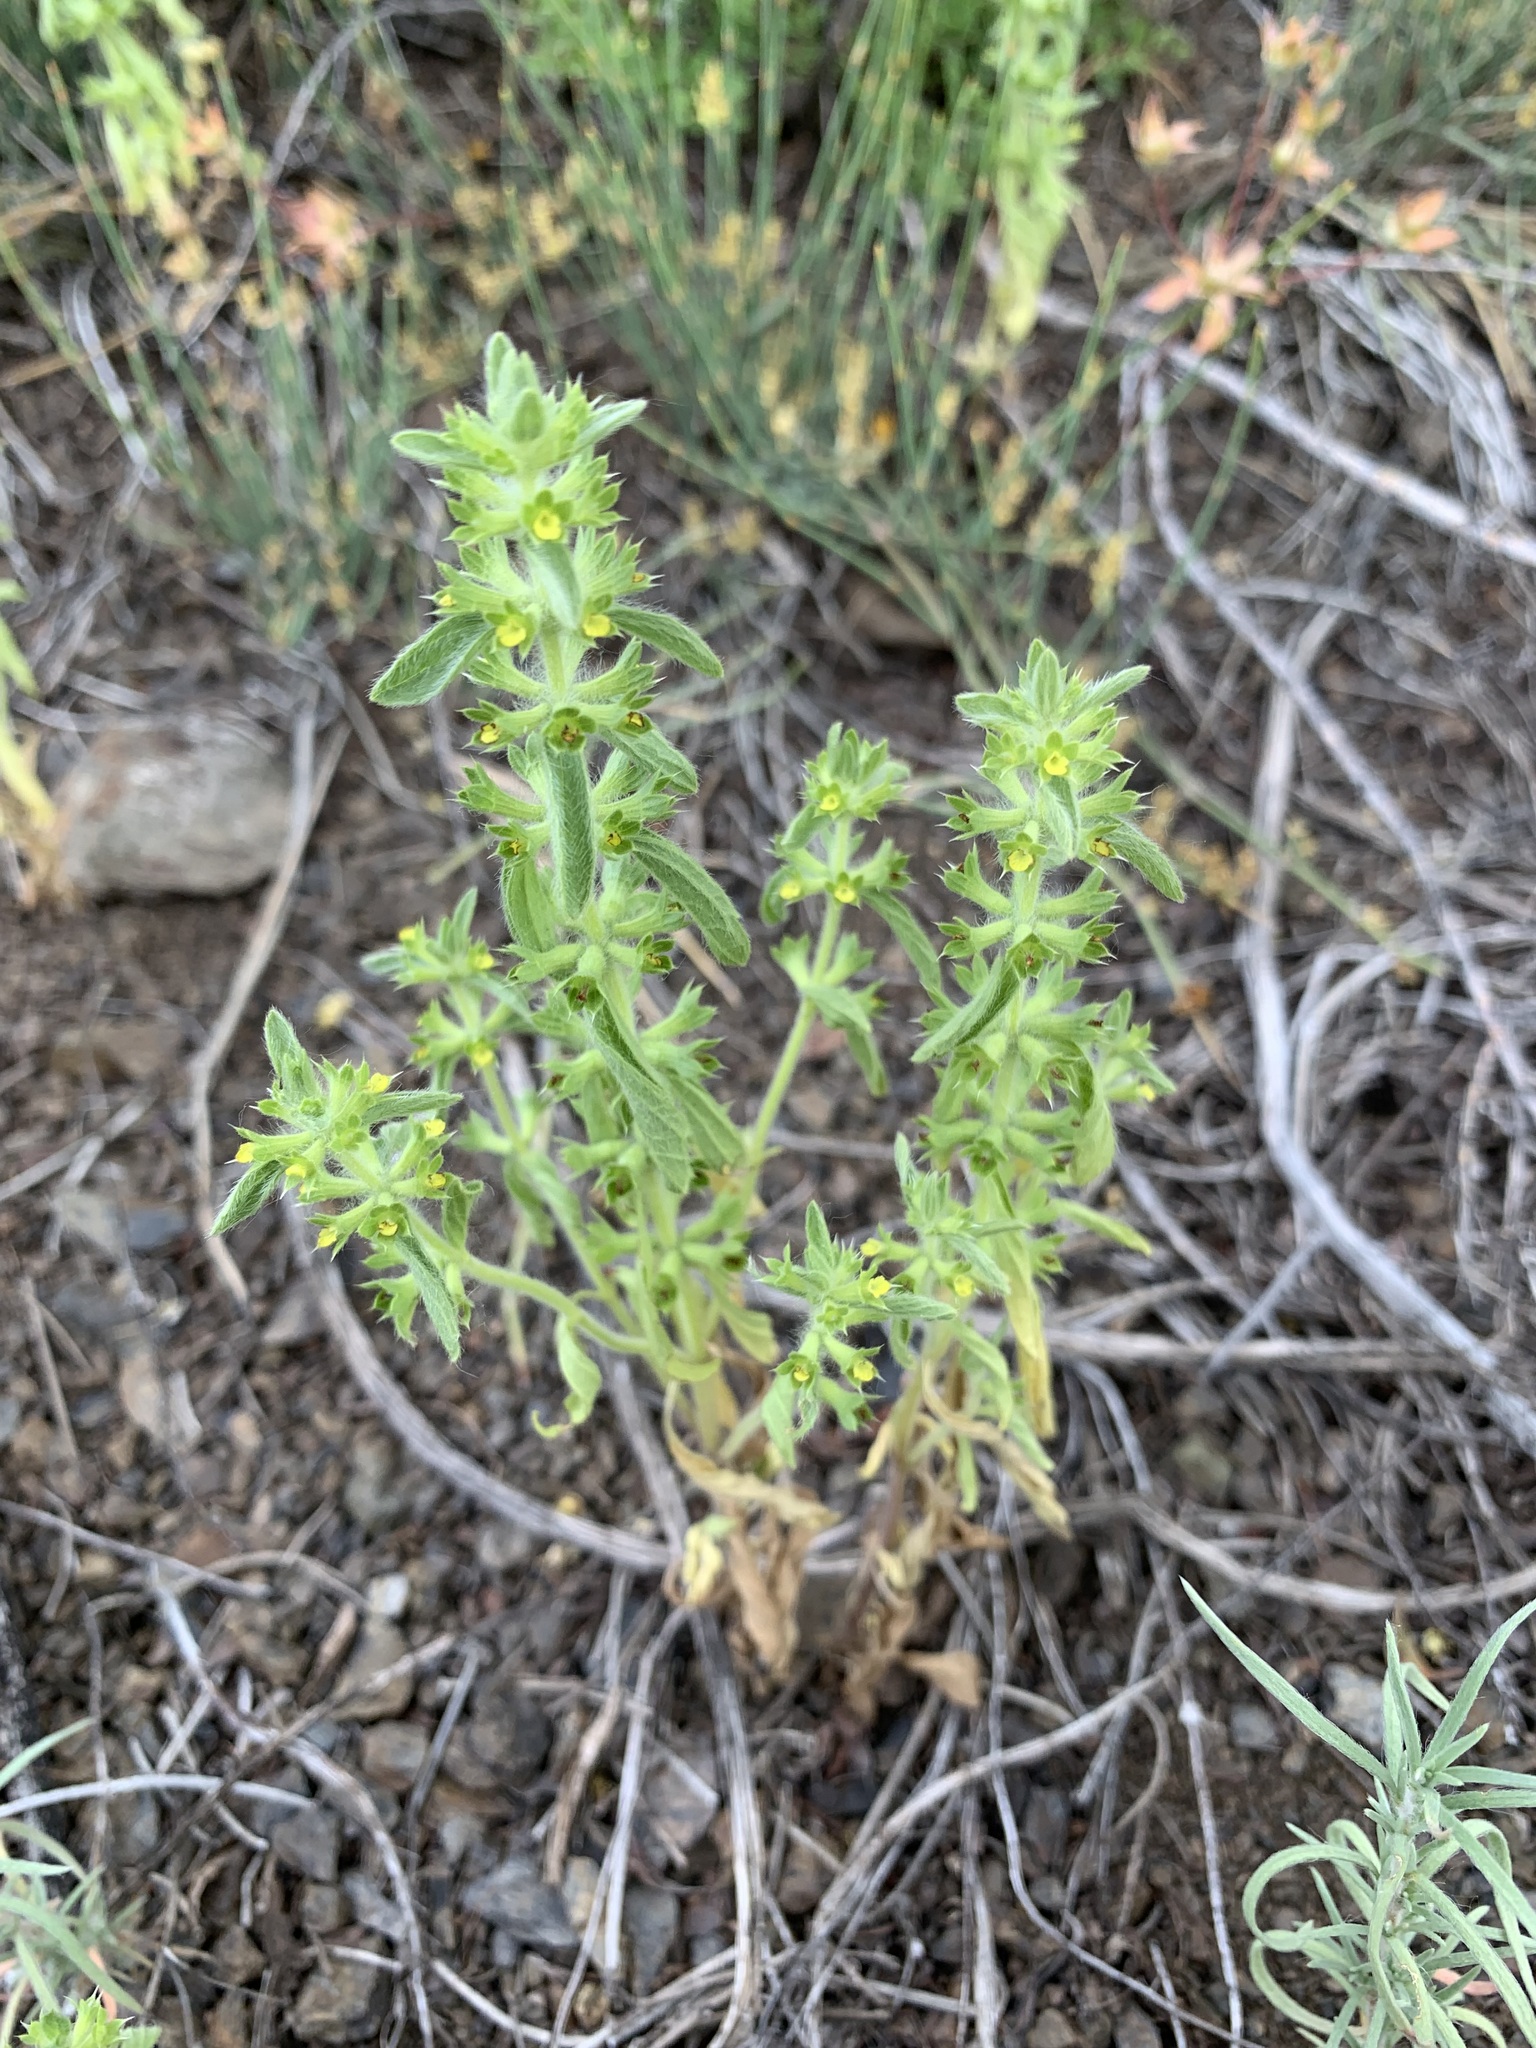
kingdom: Plantae
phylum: Tracheophyta
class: Magnoliopsida
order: Lamiales
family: Lamiaceae
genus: Sideritis
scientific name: Sideritis montana
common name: Mountain ironwort
